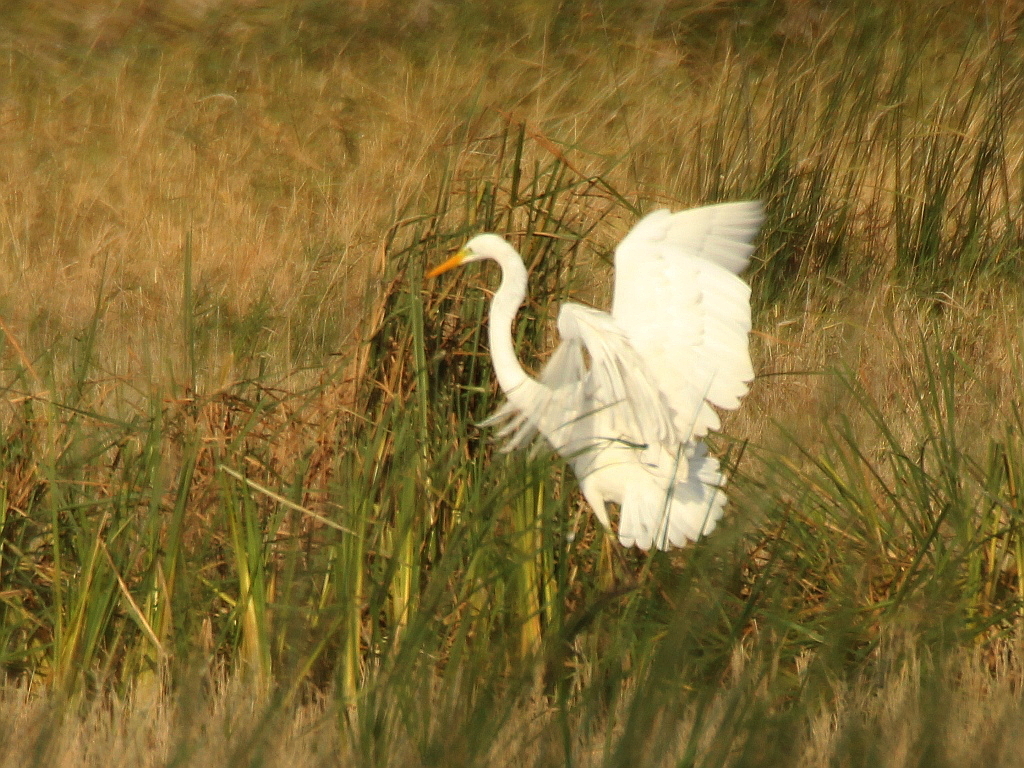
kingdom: Animalia
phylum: Chordata
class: Aves
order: Pelecaniformes
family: Ardeidae
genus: Ardea
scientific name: Ardea alba
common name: Great egret
